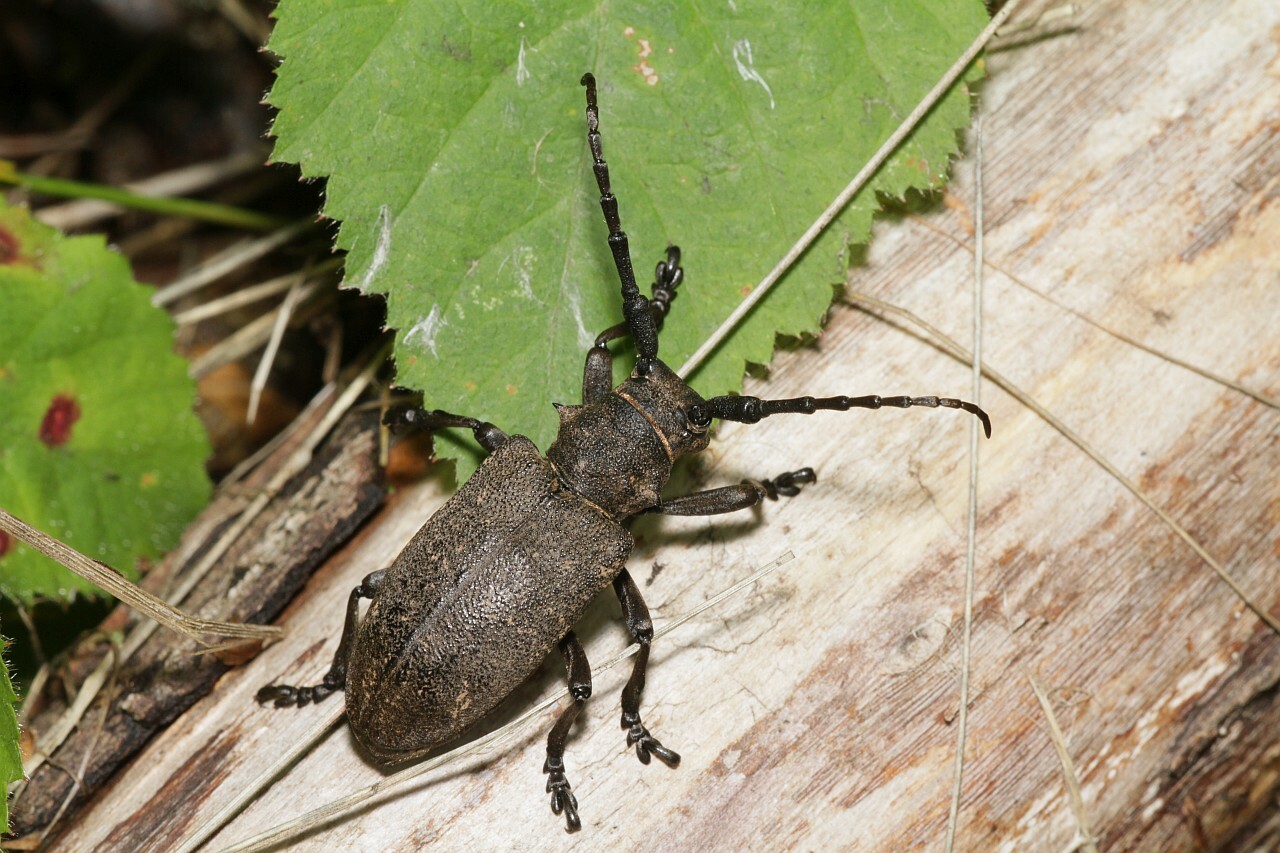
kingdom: Animalia
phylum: Arthropoda
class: Insecta
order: Coleoptera
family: Cerambycidae
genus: Lamia
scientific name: Lamia textor
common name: Weaver beetle
